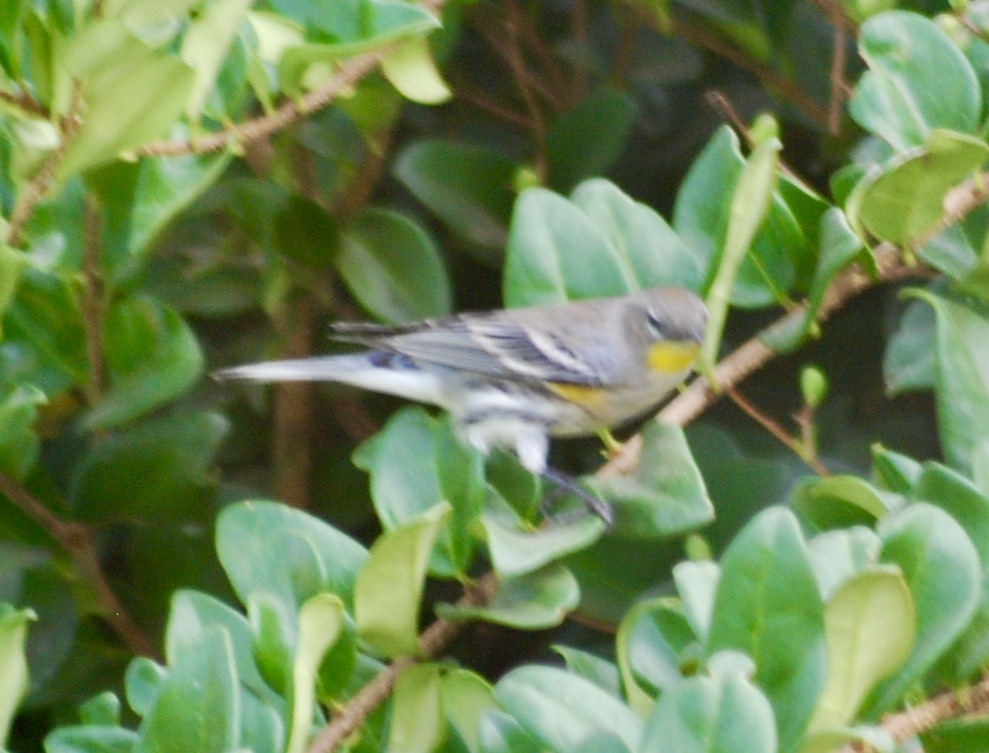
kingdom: Animalia
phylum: Chordata
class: Aves
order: Passeriformes
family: Parulidae
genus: Setophaga
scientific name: Setophaga auduboni
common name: Audubon's warbler
